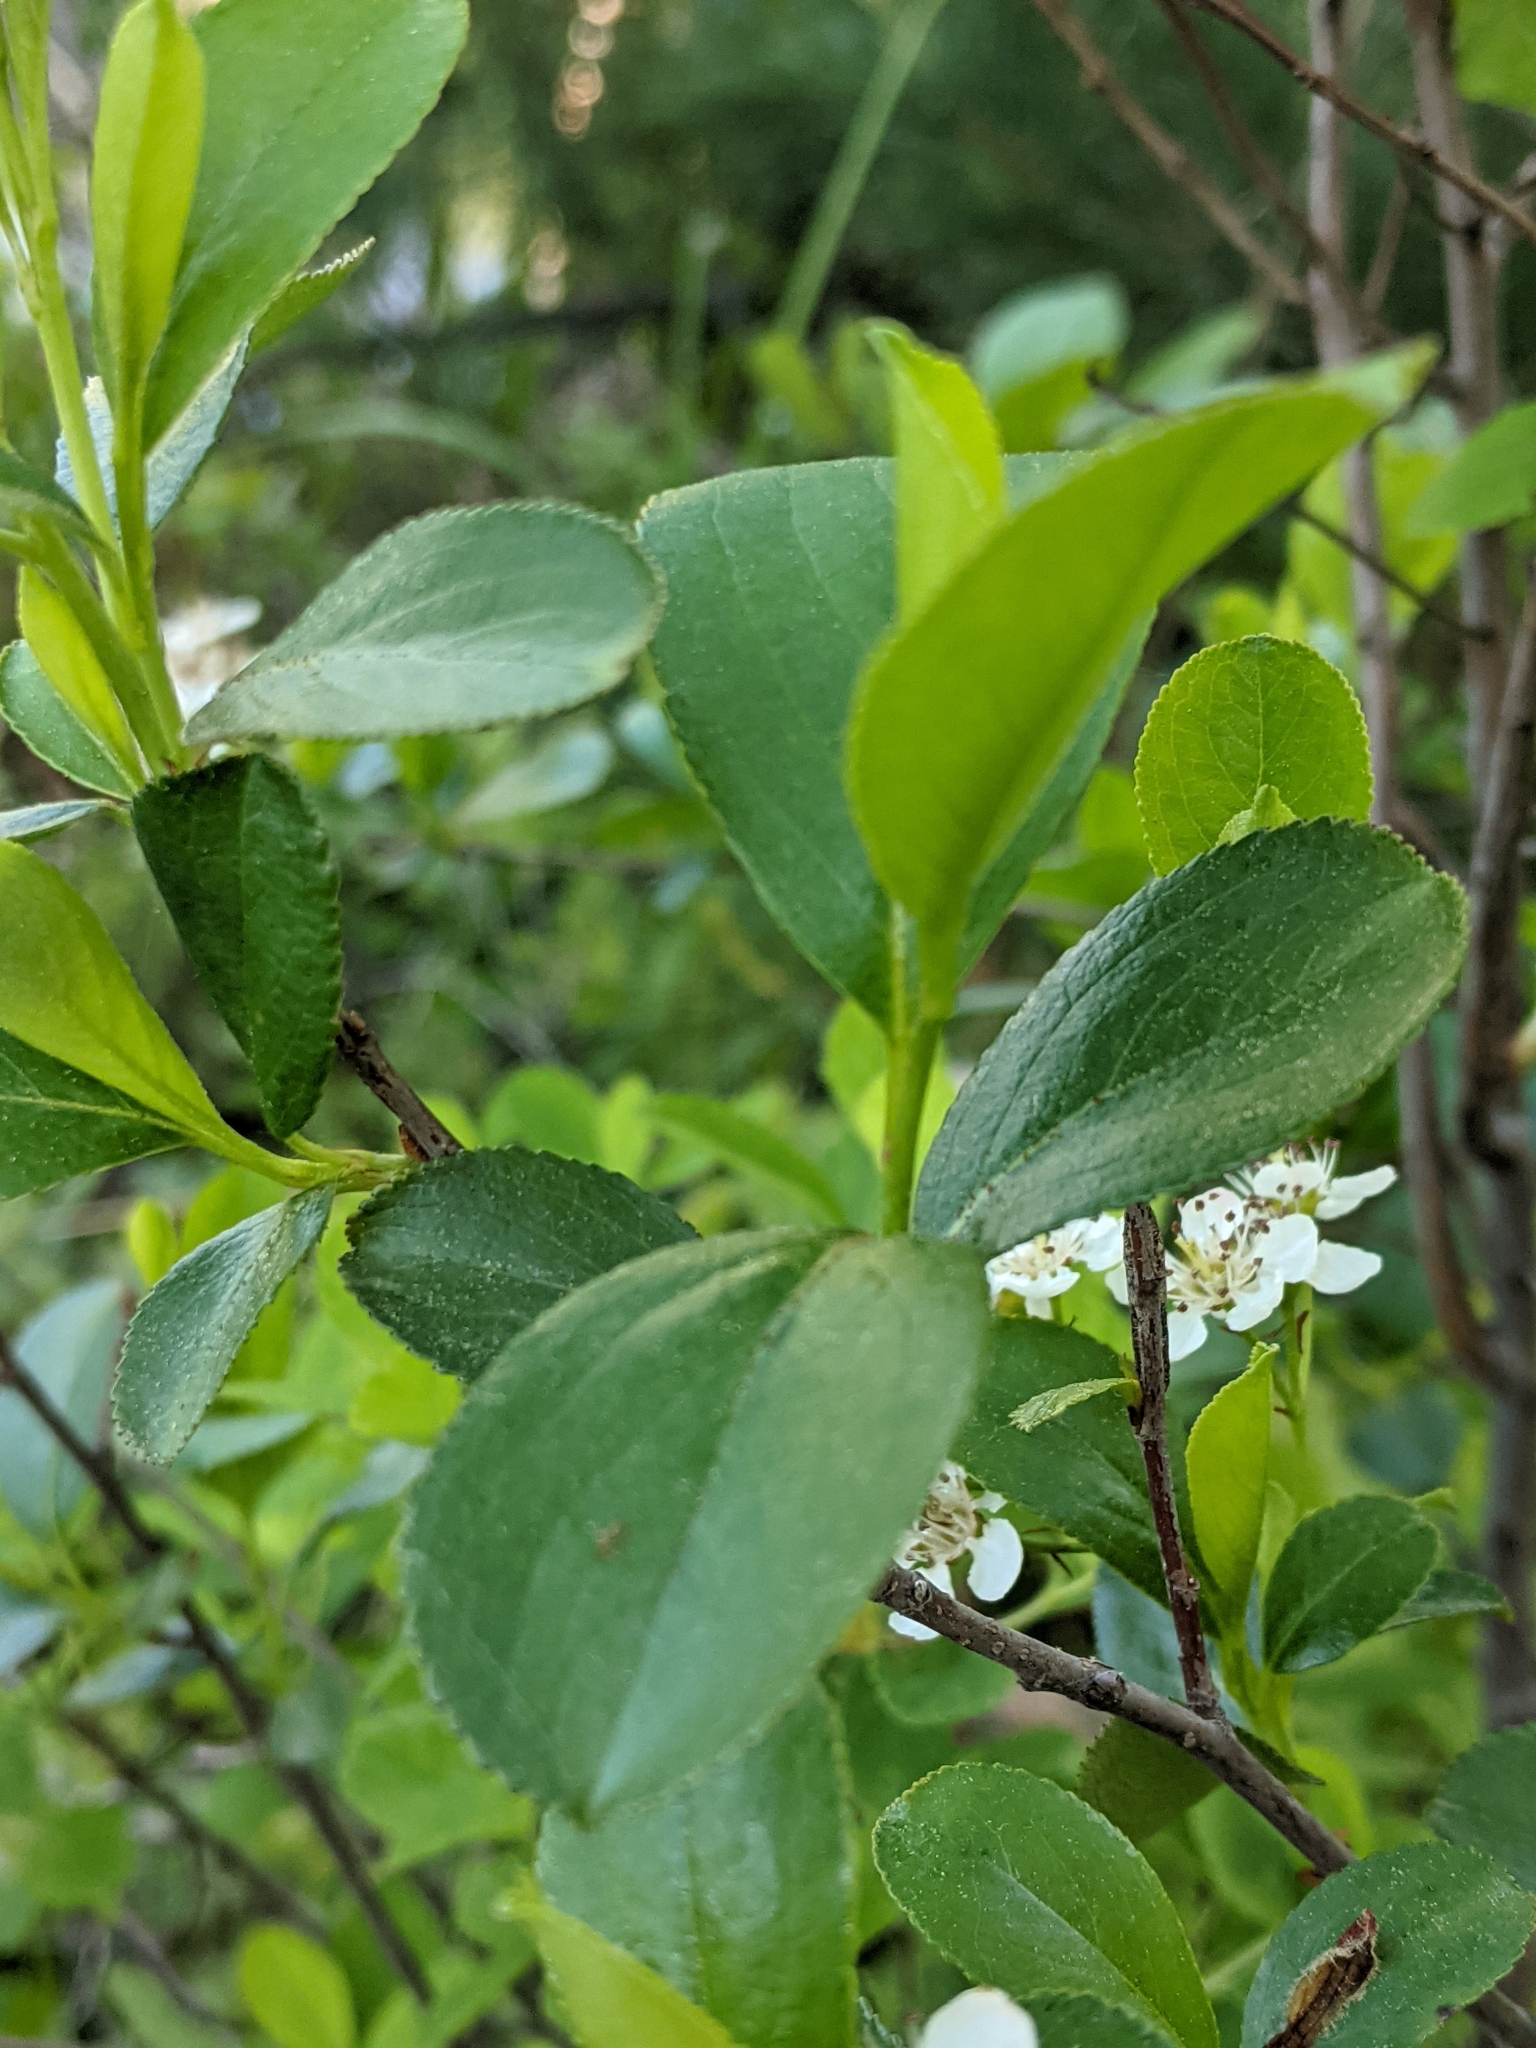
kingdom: Plantae
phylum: Tracheophyta
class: Magnoliopsida
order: Rosales
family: Rosaceae
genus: Aronia
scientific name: Aronia melanocarpa
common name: Black chokeberry
